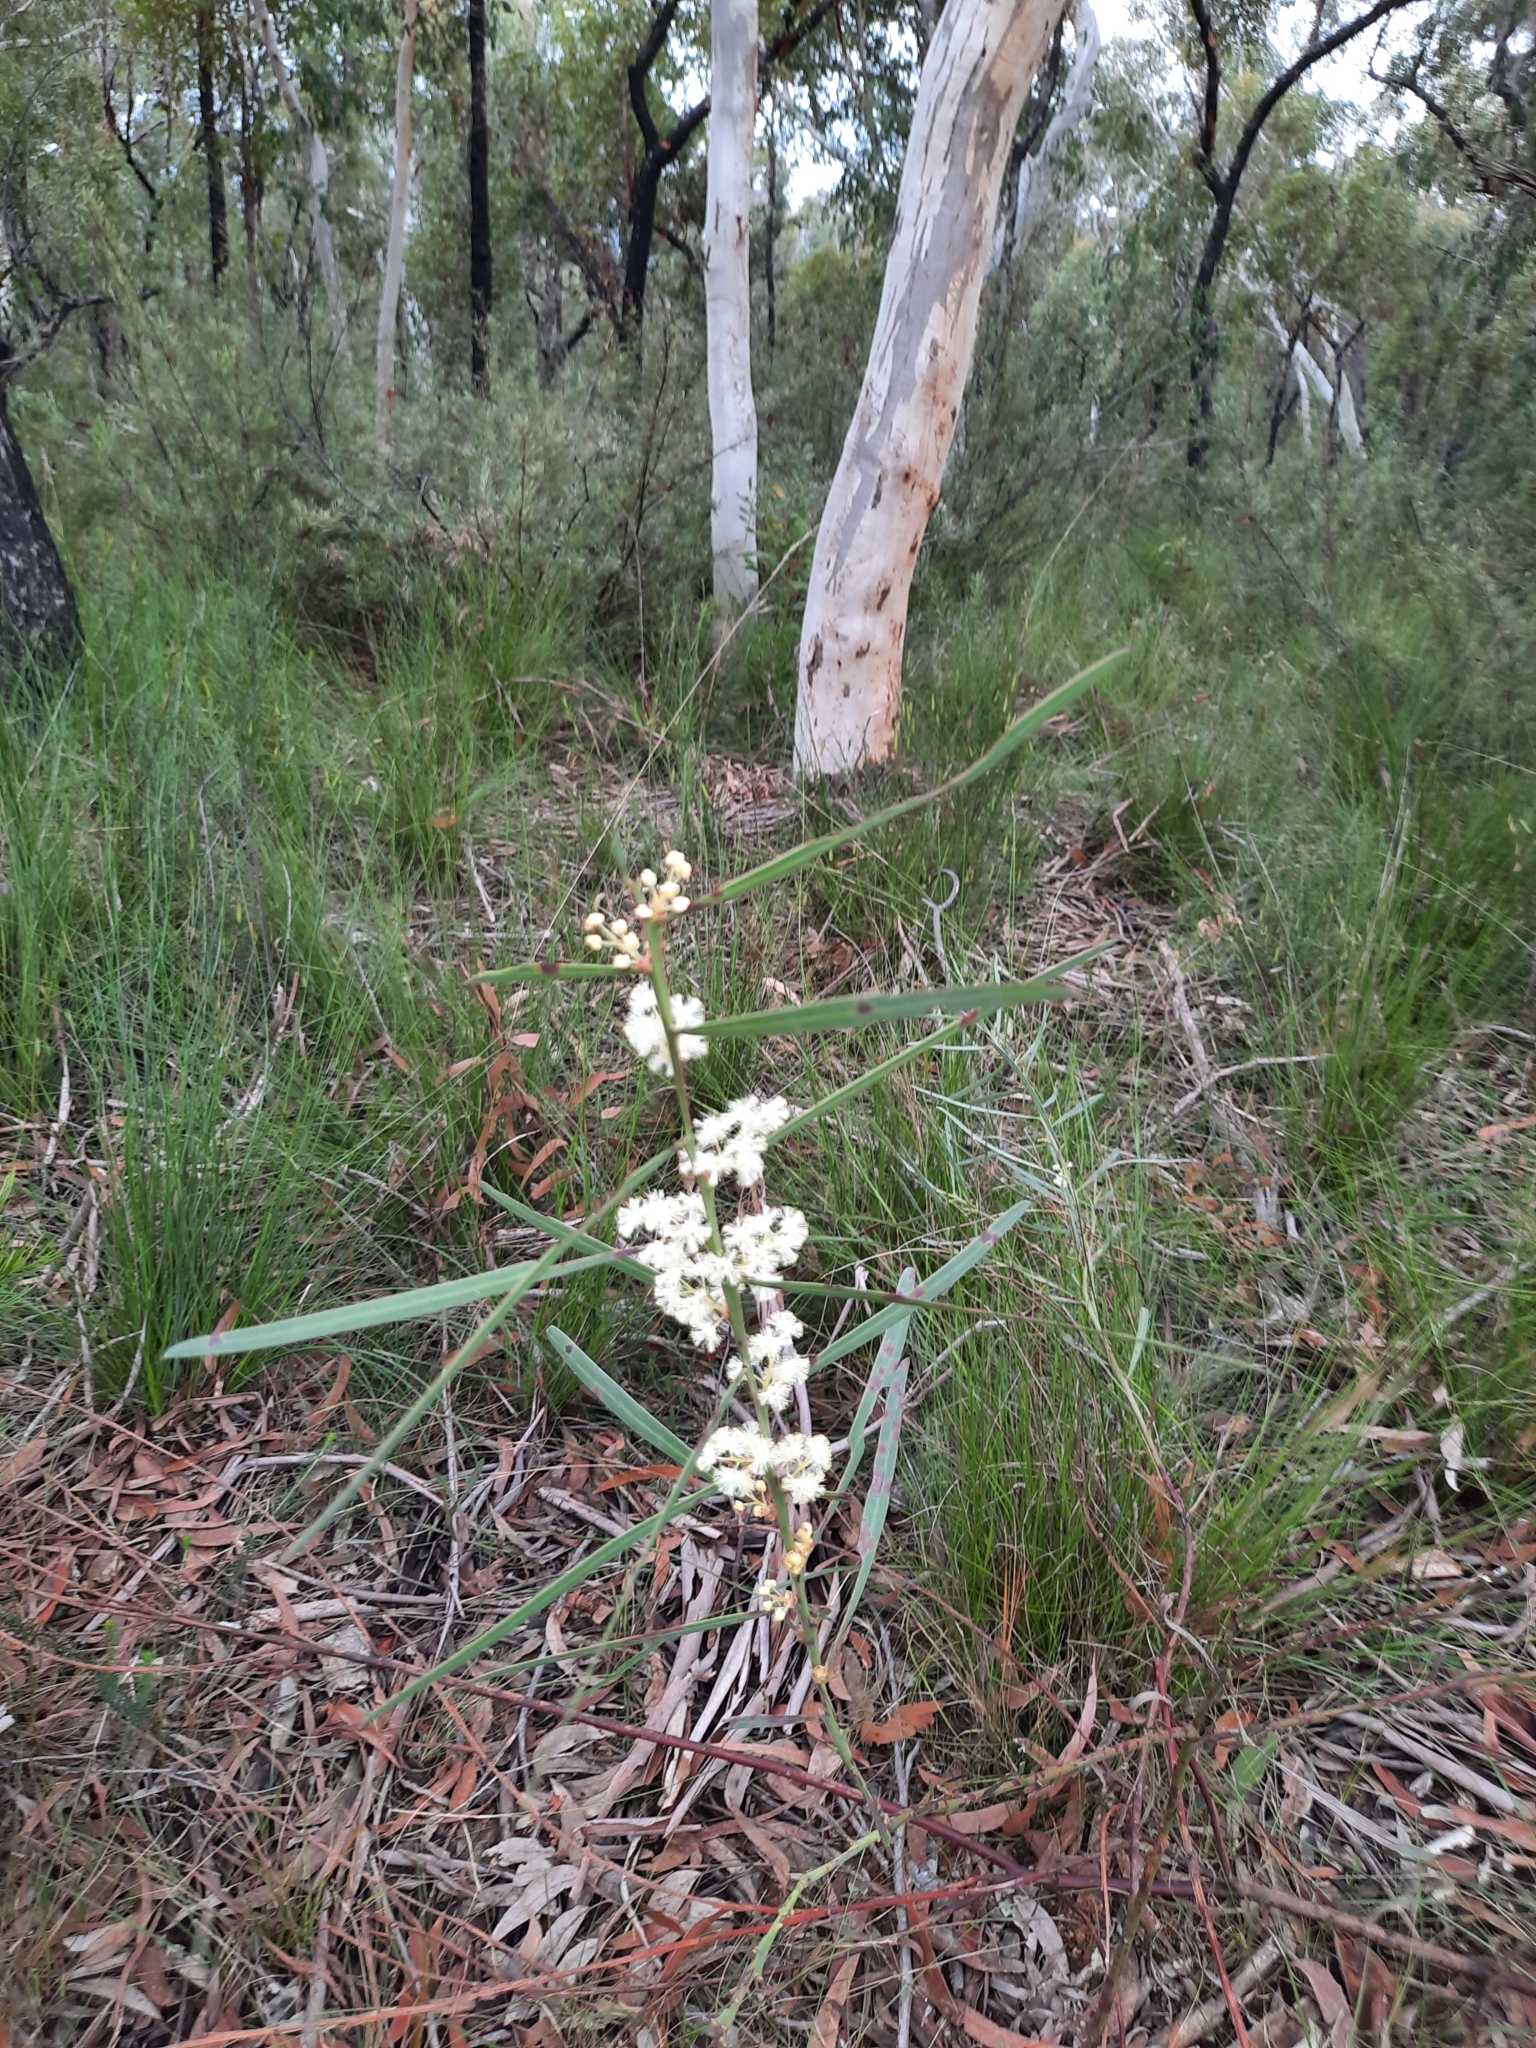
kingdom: Plantae
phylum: Tracheophyta
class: Magnoliopsida
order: Fabales
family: Fabaceae
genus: Acacia
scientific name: Acacia suaveolens
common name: Sweet acacia
